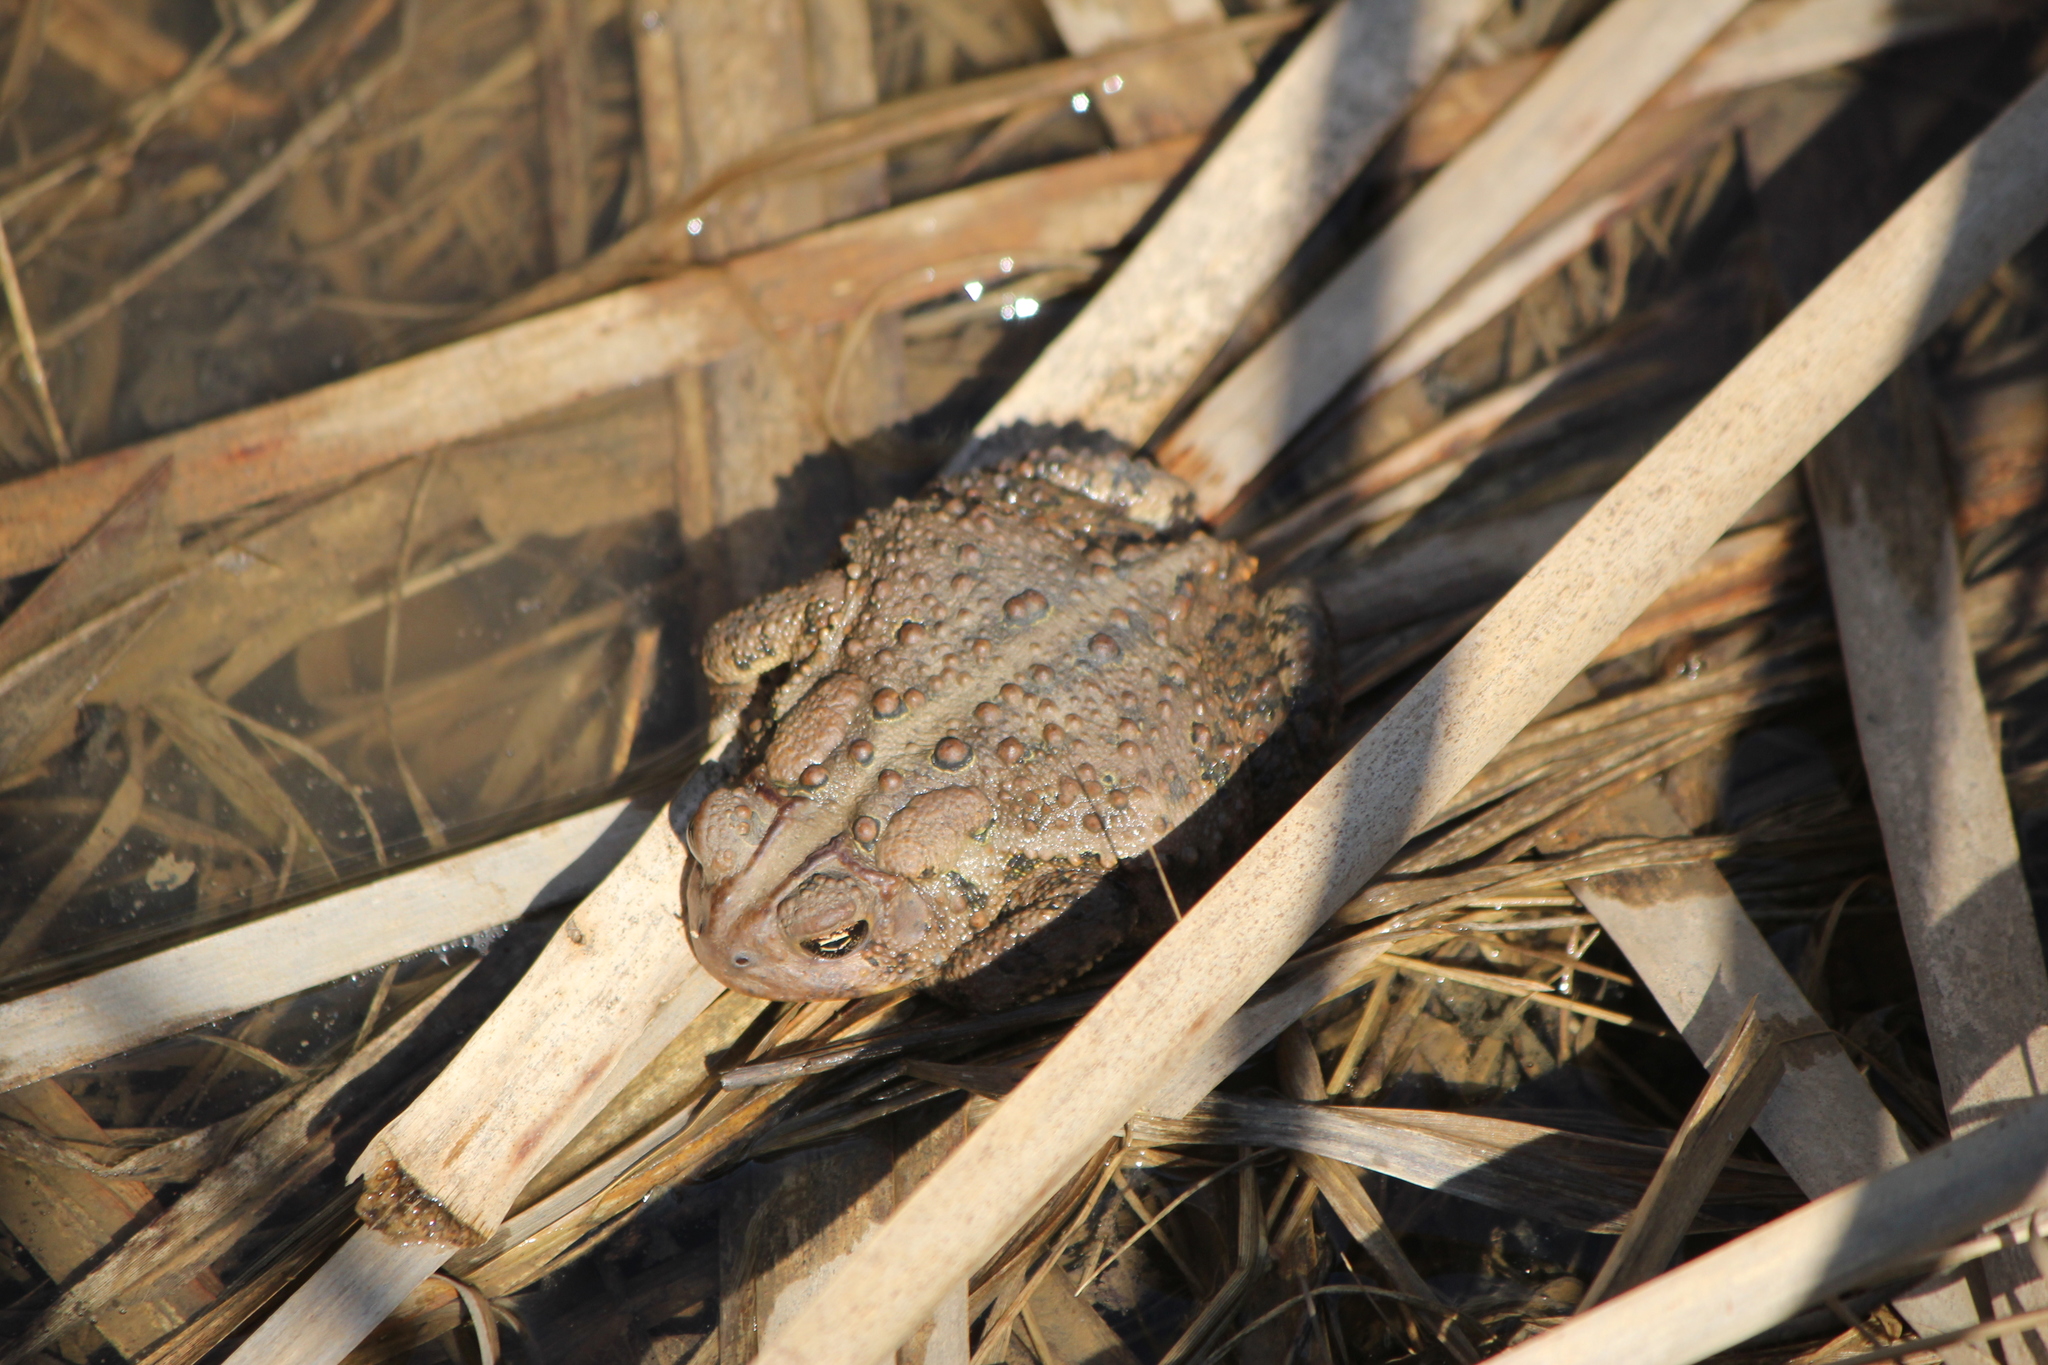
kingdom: Animalia
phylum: Chordata
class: Amphibia
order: Anura
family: Bufonidae
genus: Anaxyrus
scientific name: Anaxyrus americanus
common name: American toad
